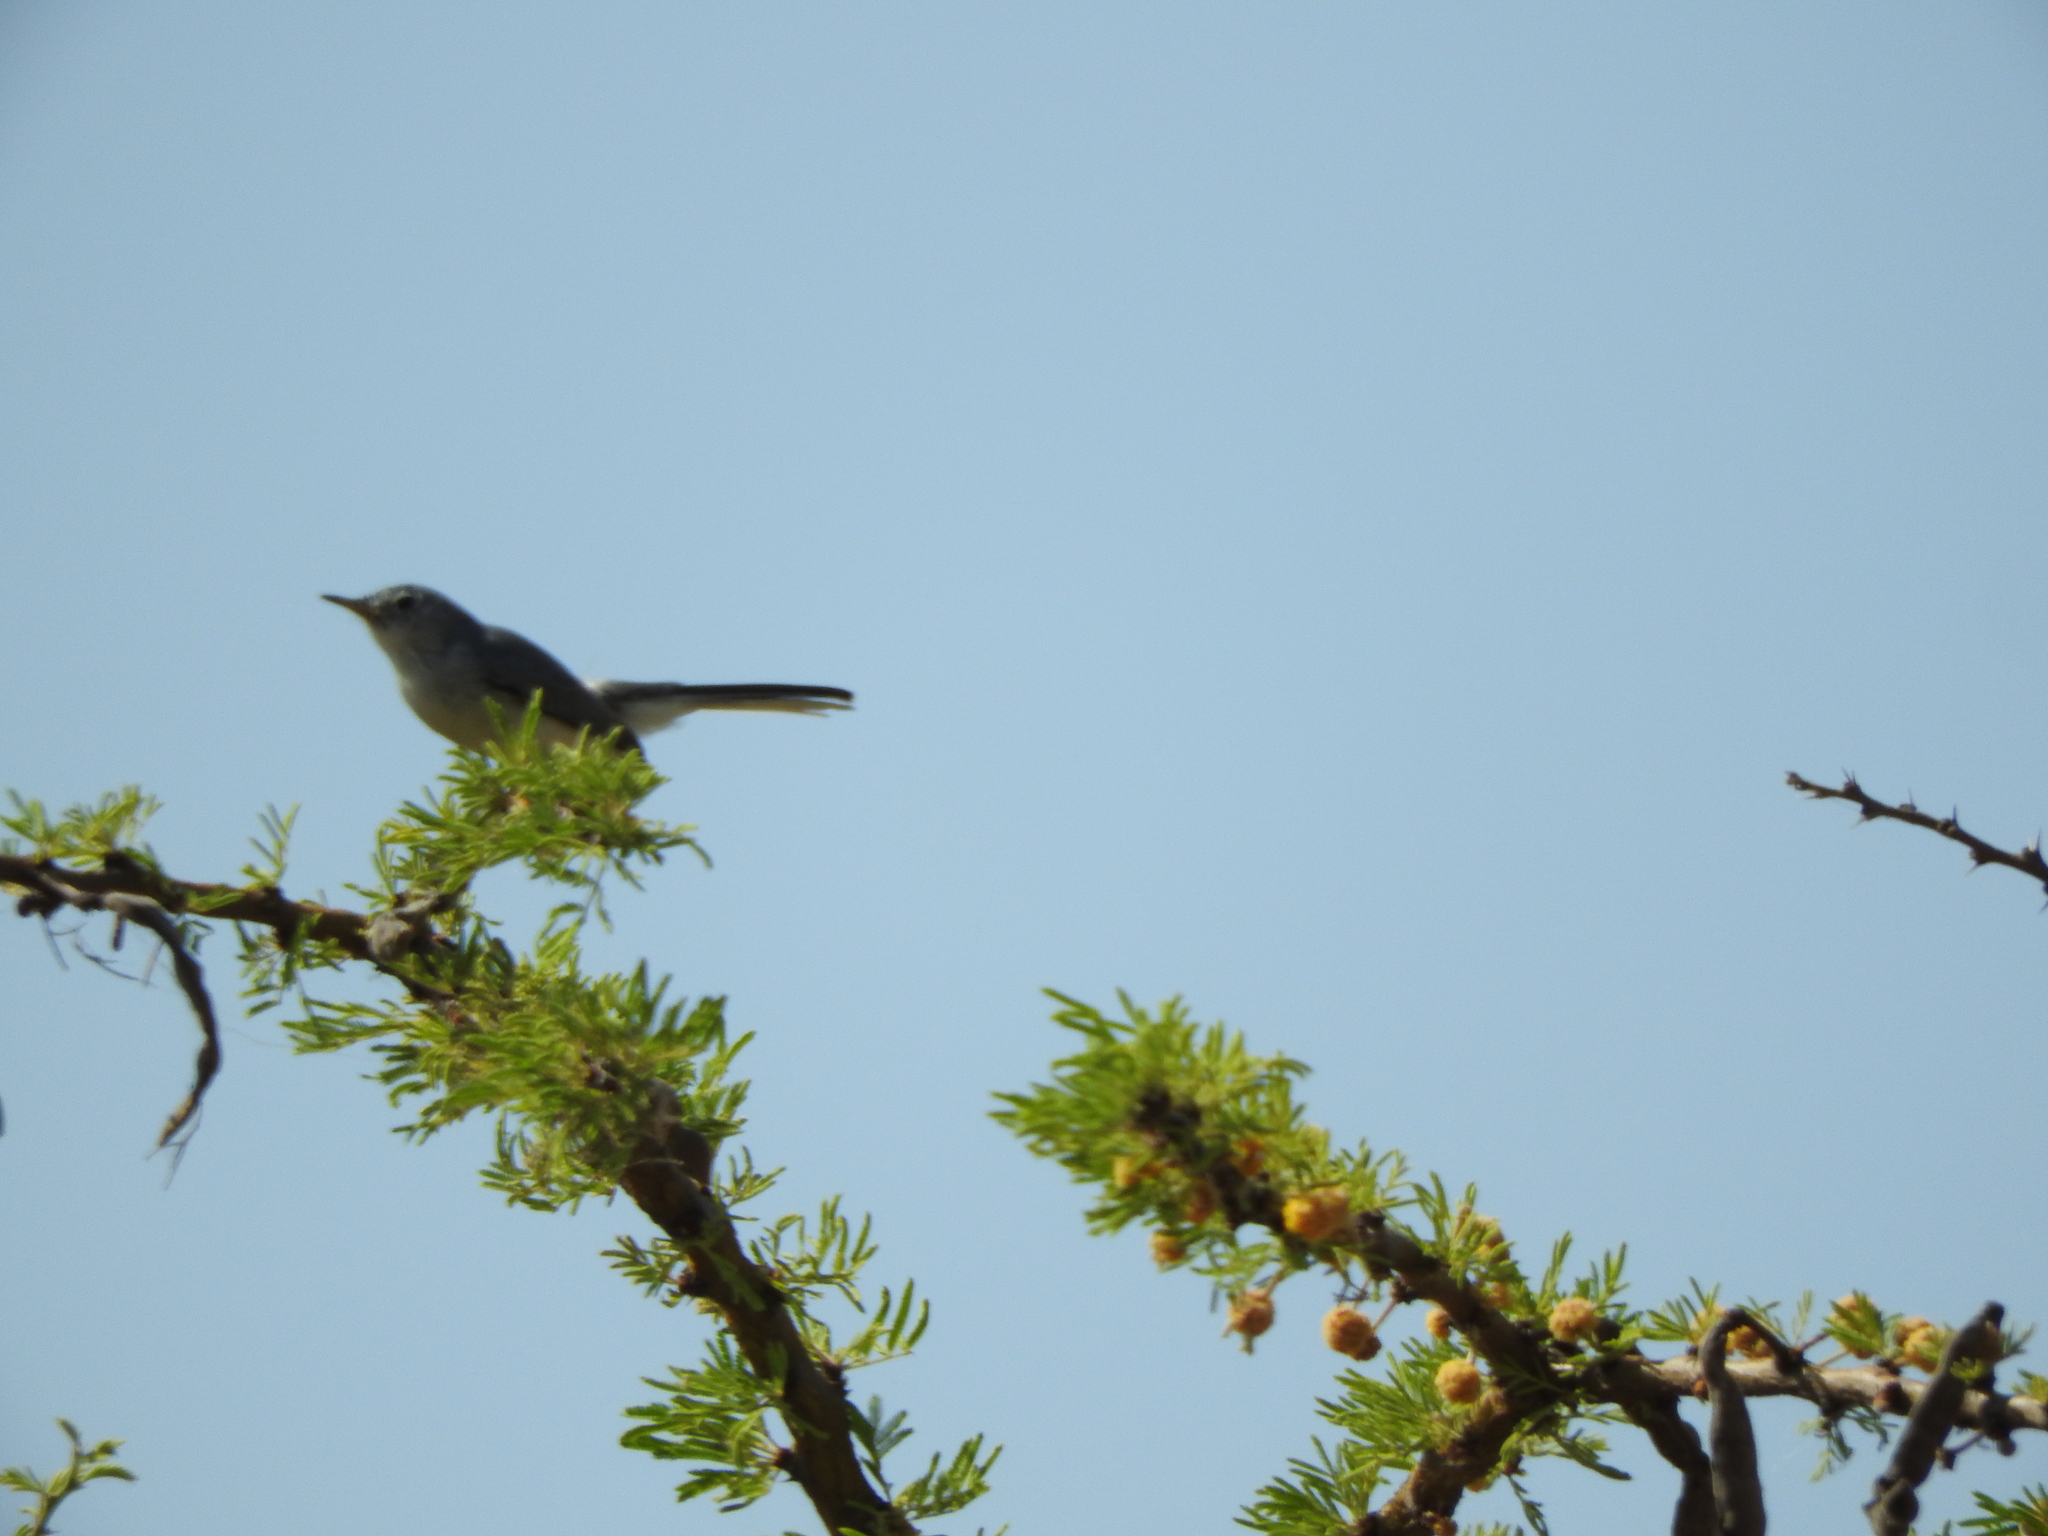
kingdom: Animalia
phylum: Chordata
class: Aves
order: Passeriformes
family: Troglodytidae
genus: Thryomanes
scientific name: Thryomanes bewickii
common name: Bewick's wren
